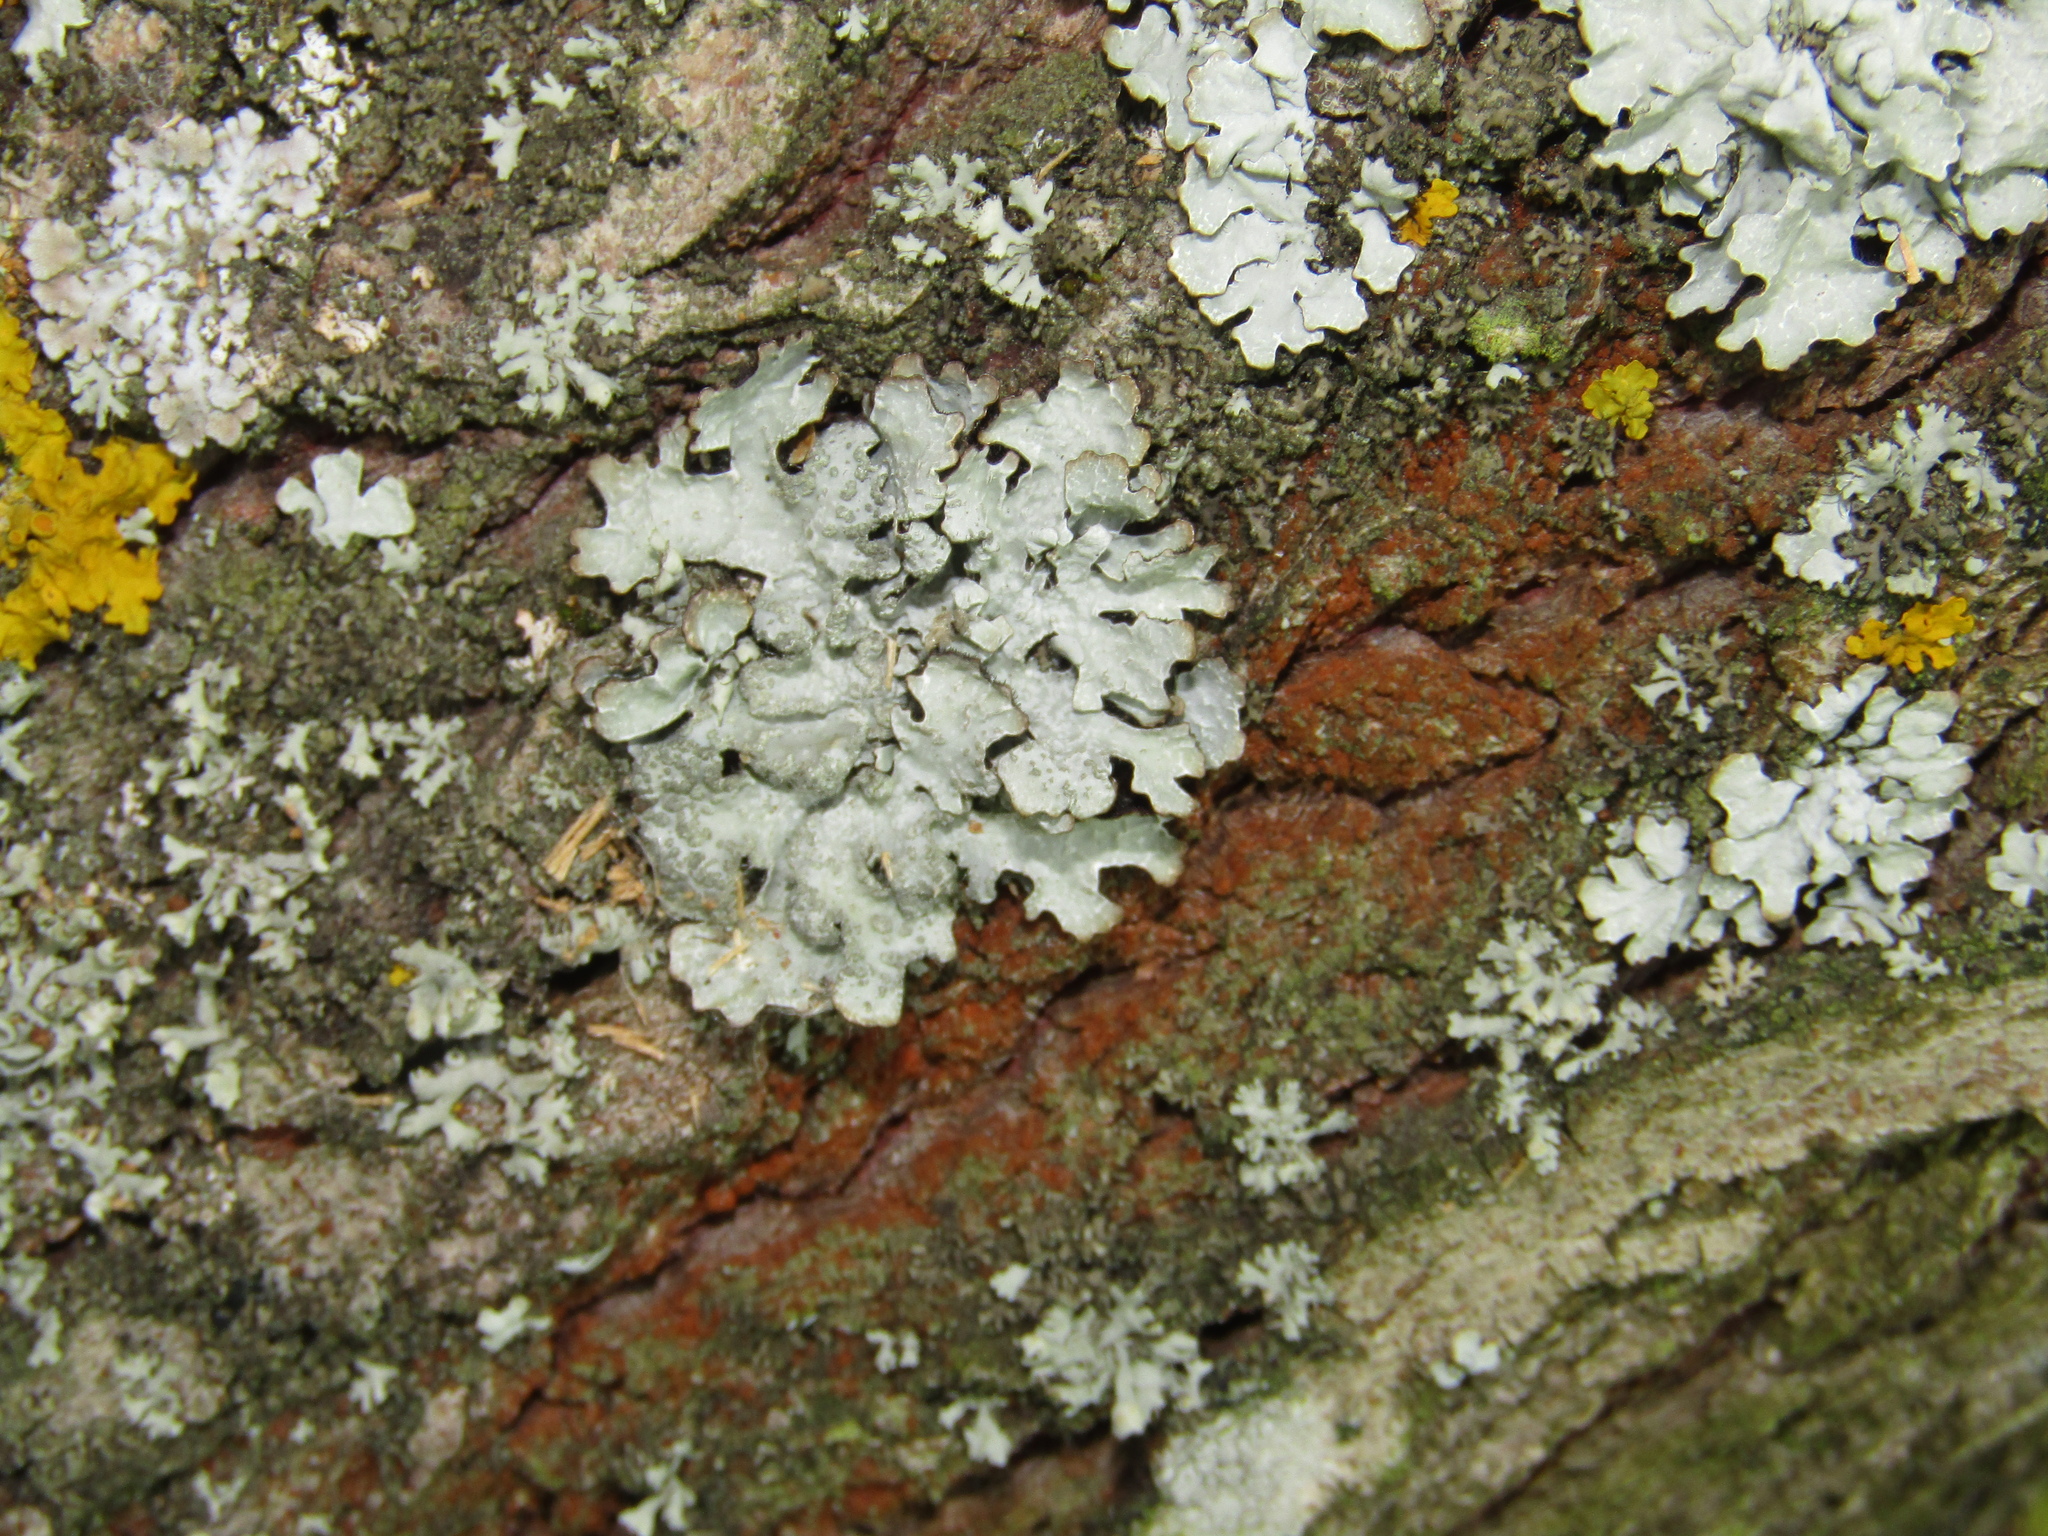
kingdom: Fungi
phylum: Ascomycota
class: Lecanoromycetes
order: Lecanorales
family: Parmeliaceae
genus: Parmelia
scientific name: Parmelia sulcata
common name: Netted shield lichen
